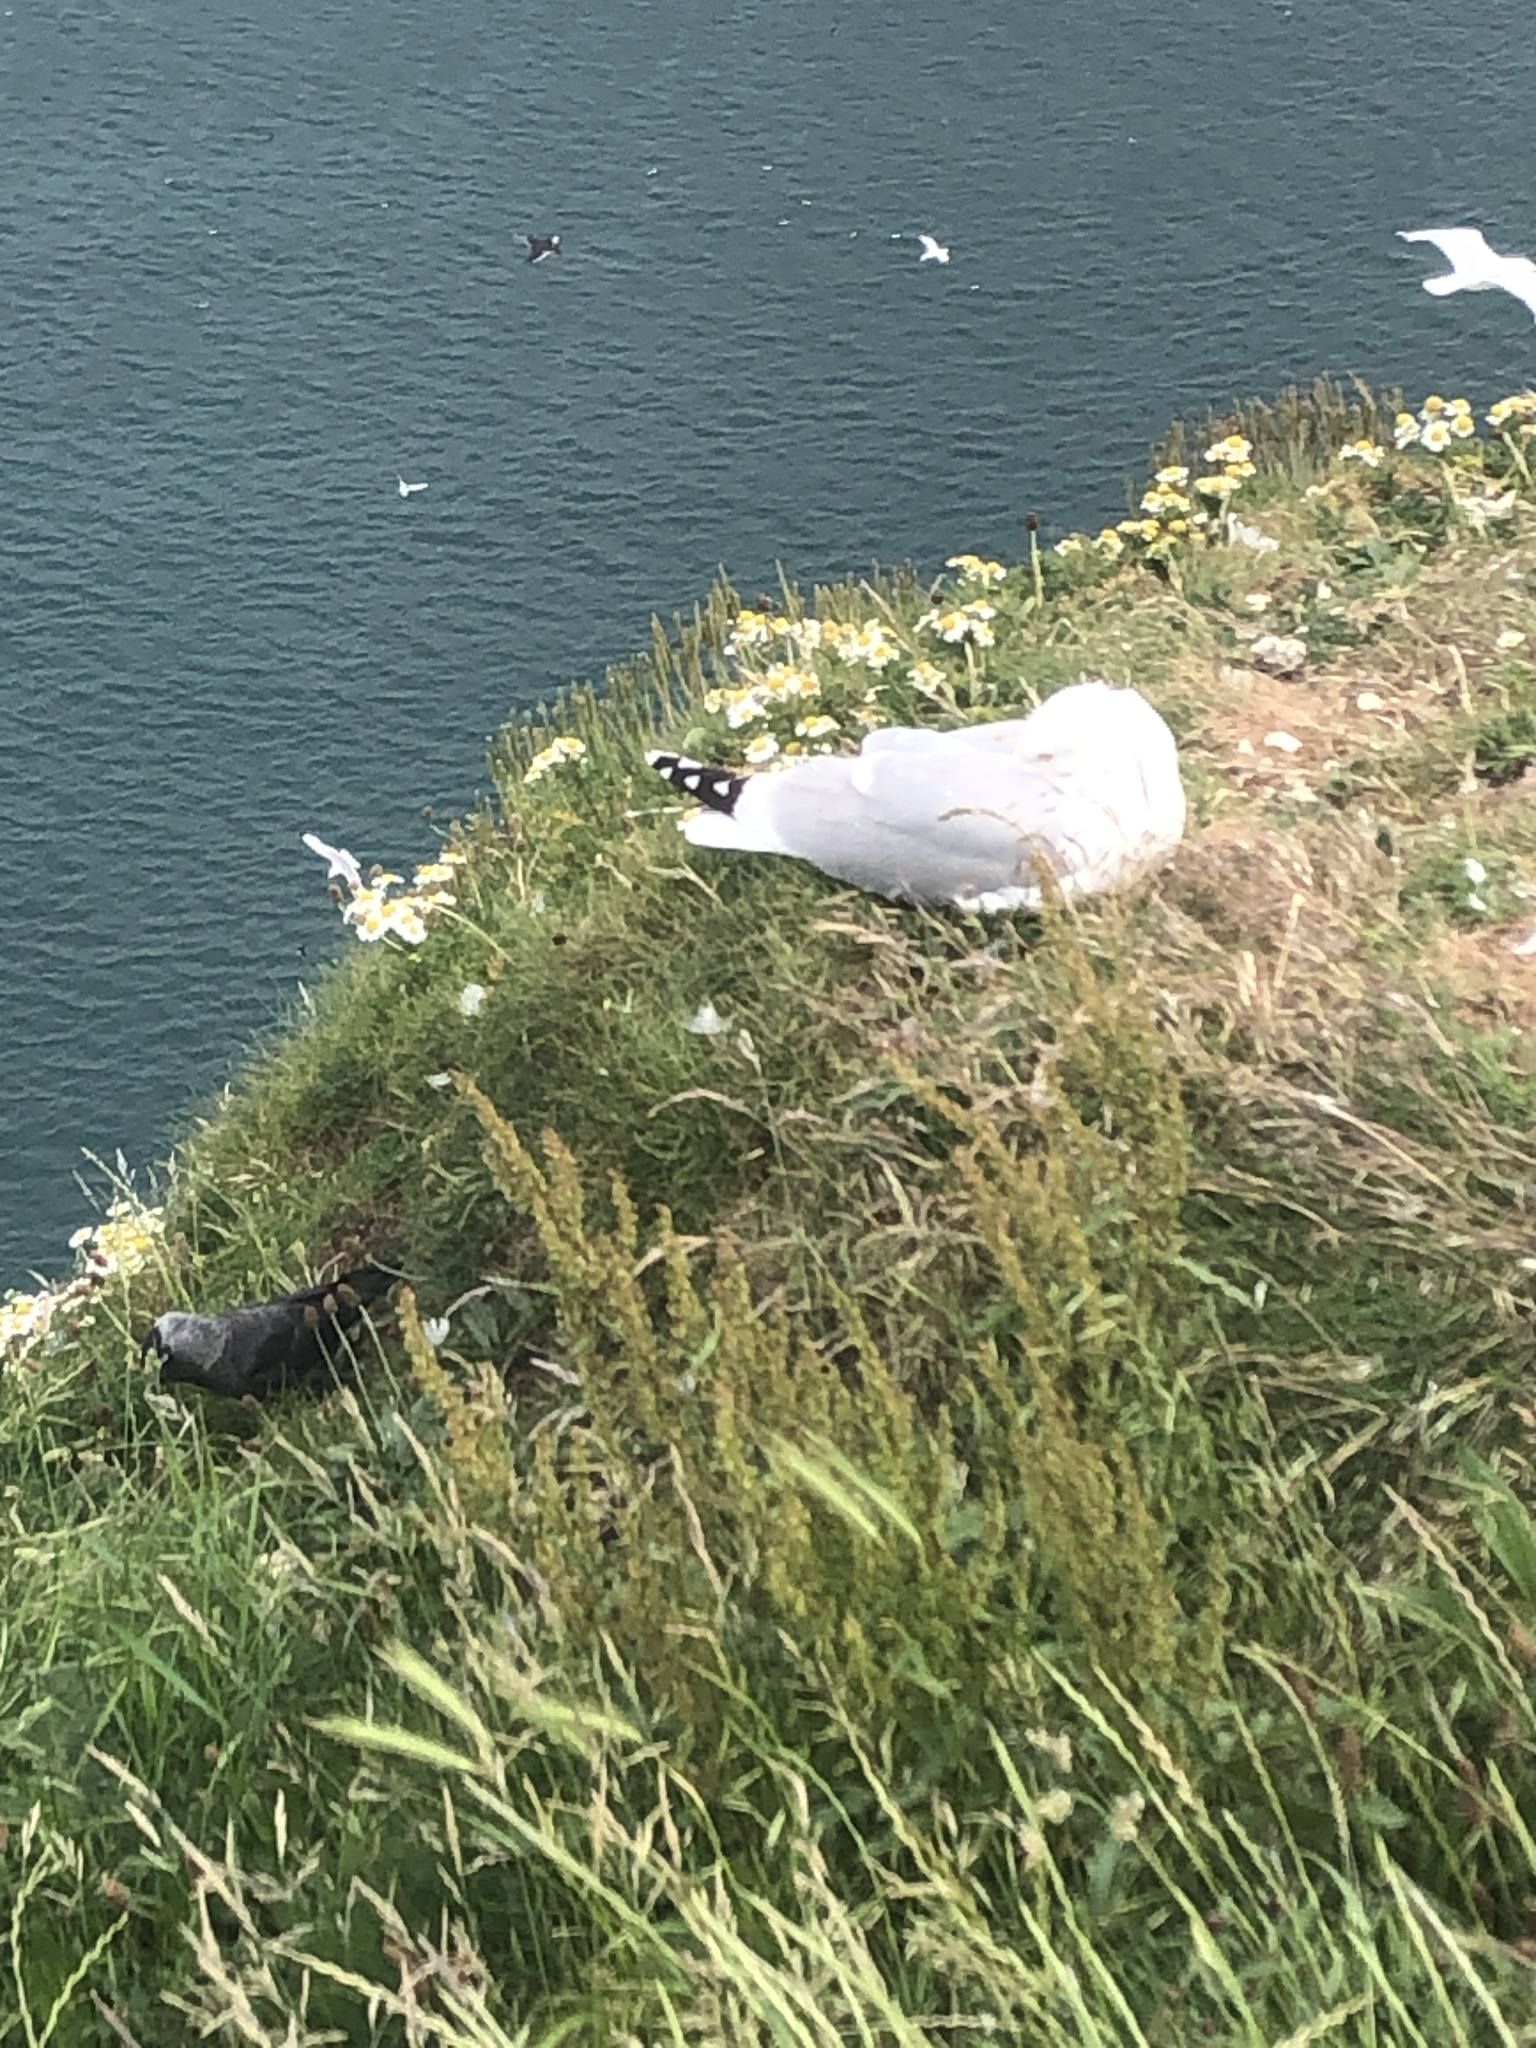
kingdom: Animalia
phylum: Chordata
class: Aves
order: Charadriiformes
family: Laridae
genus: Larus
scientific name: Larus argentatus
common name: Herring gull
